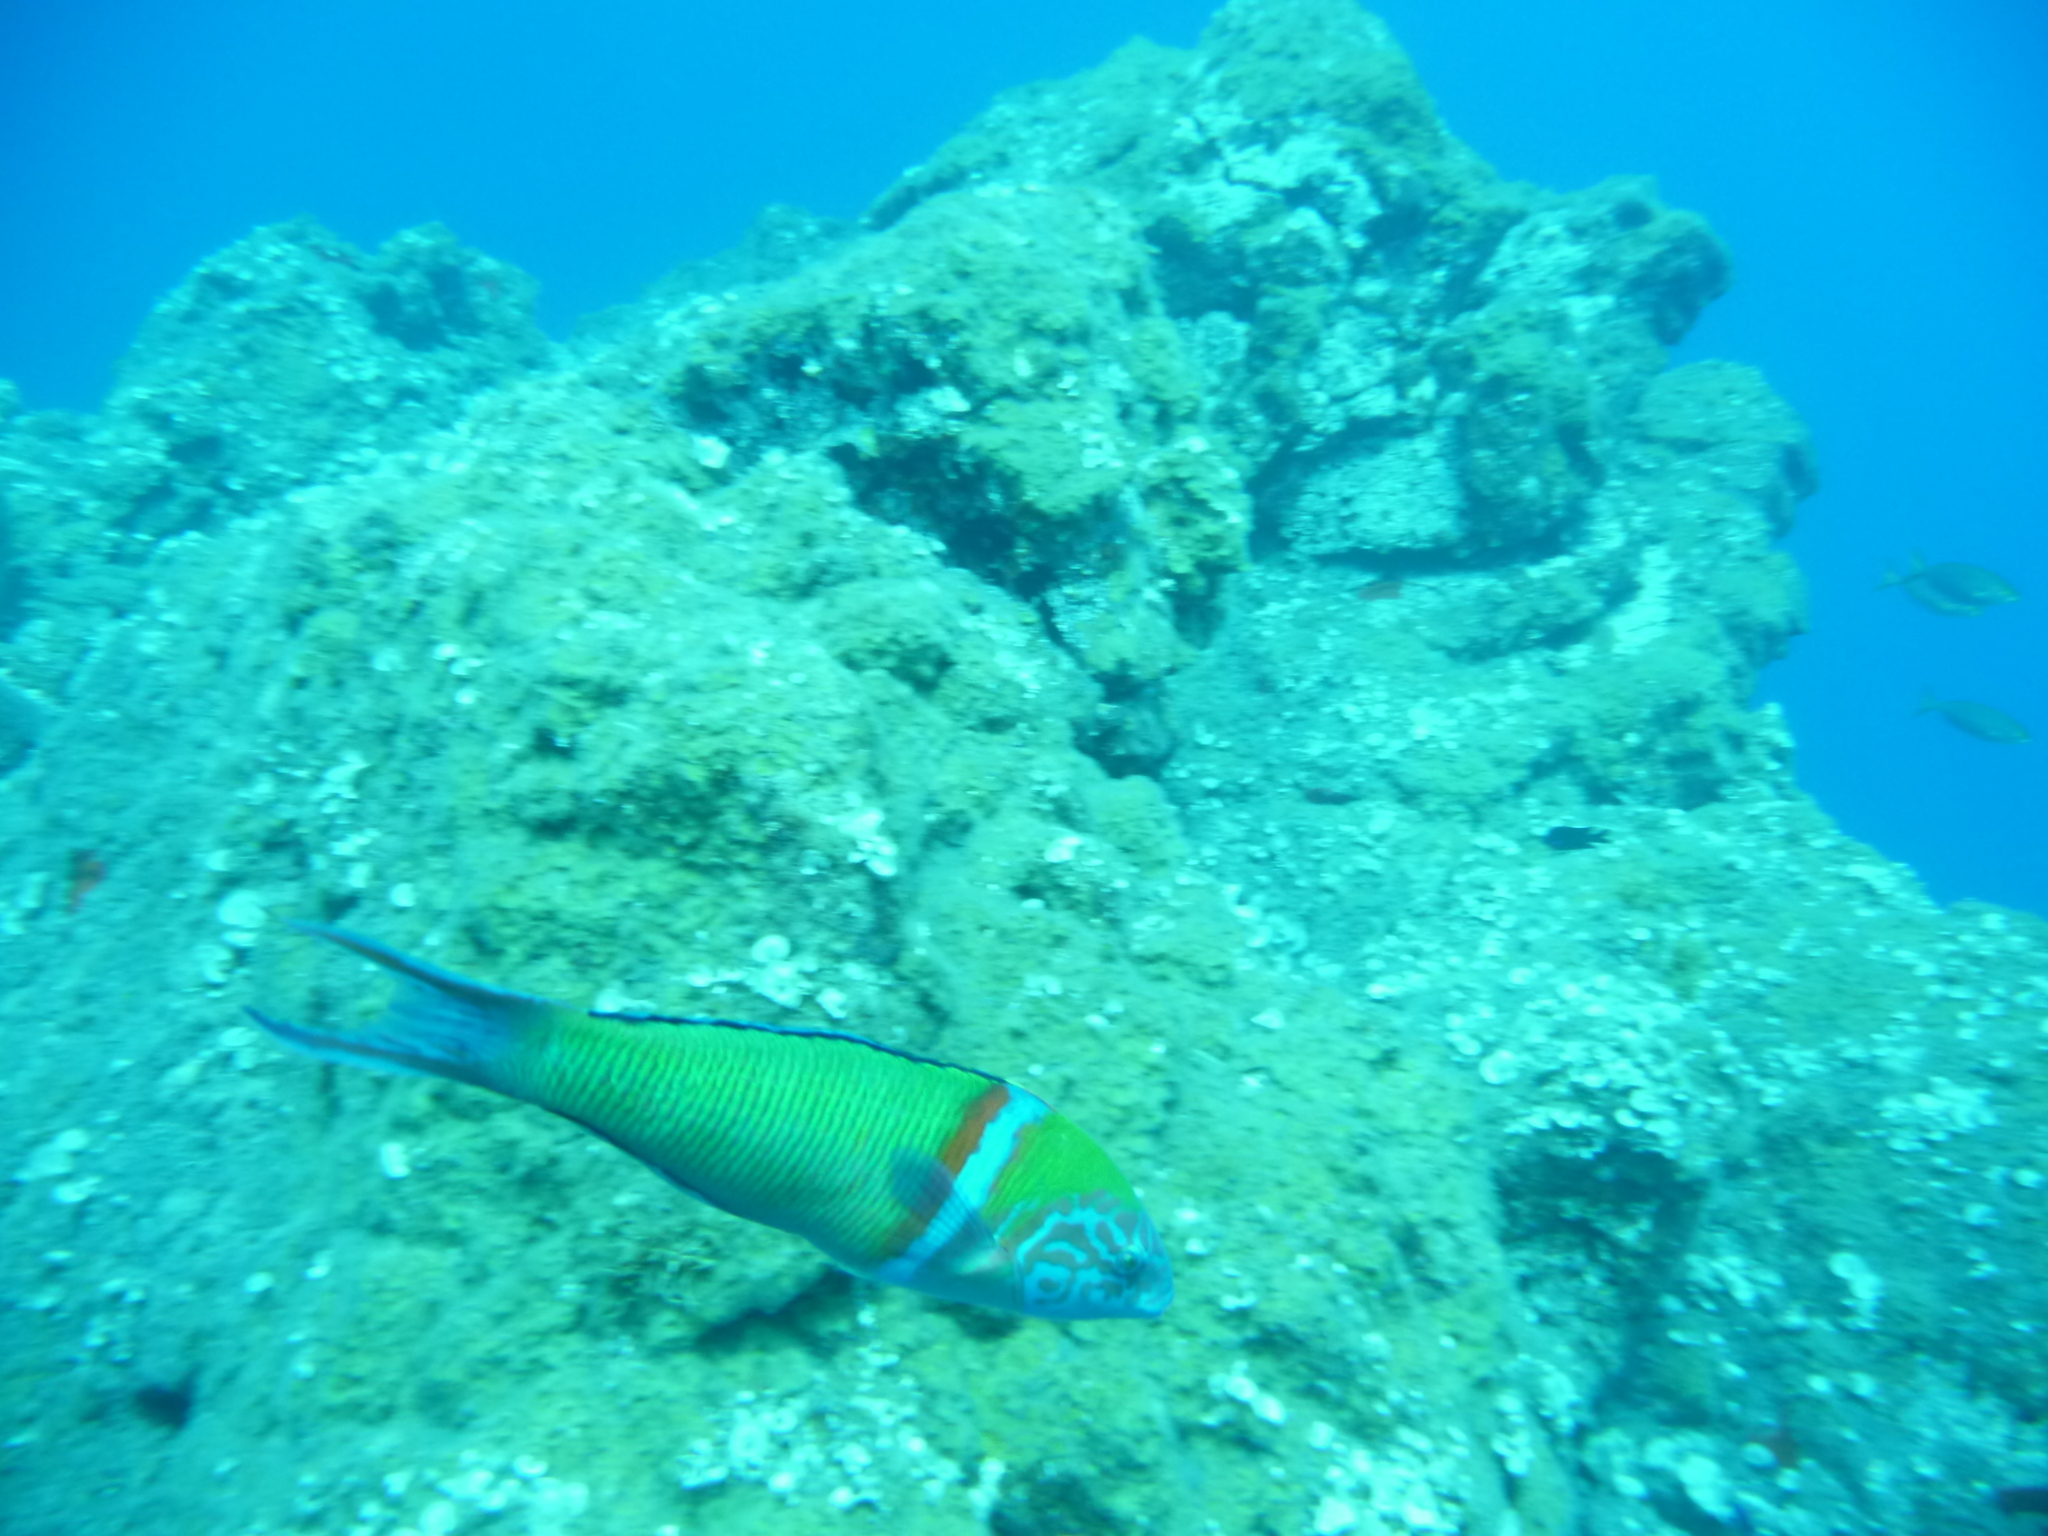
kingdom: Animalia
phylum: Chordata
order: Perciformes
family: Labridae
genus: Thalassoma
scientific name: Thalassoma pavo
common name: Ornate wrasse
